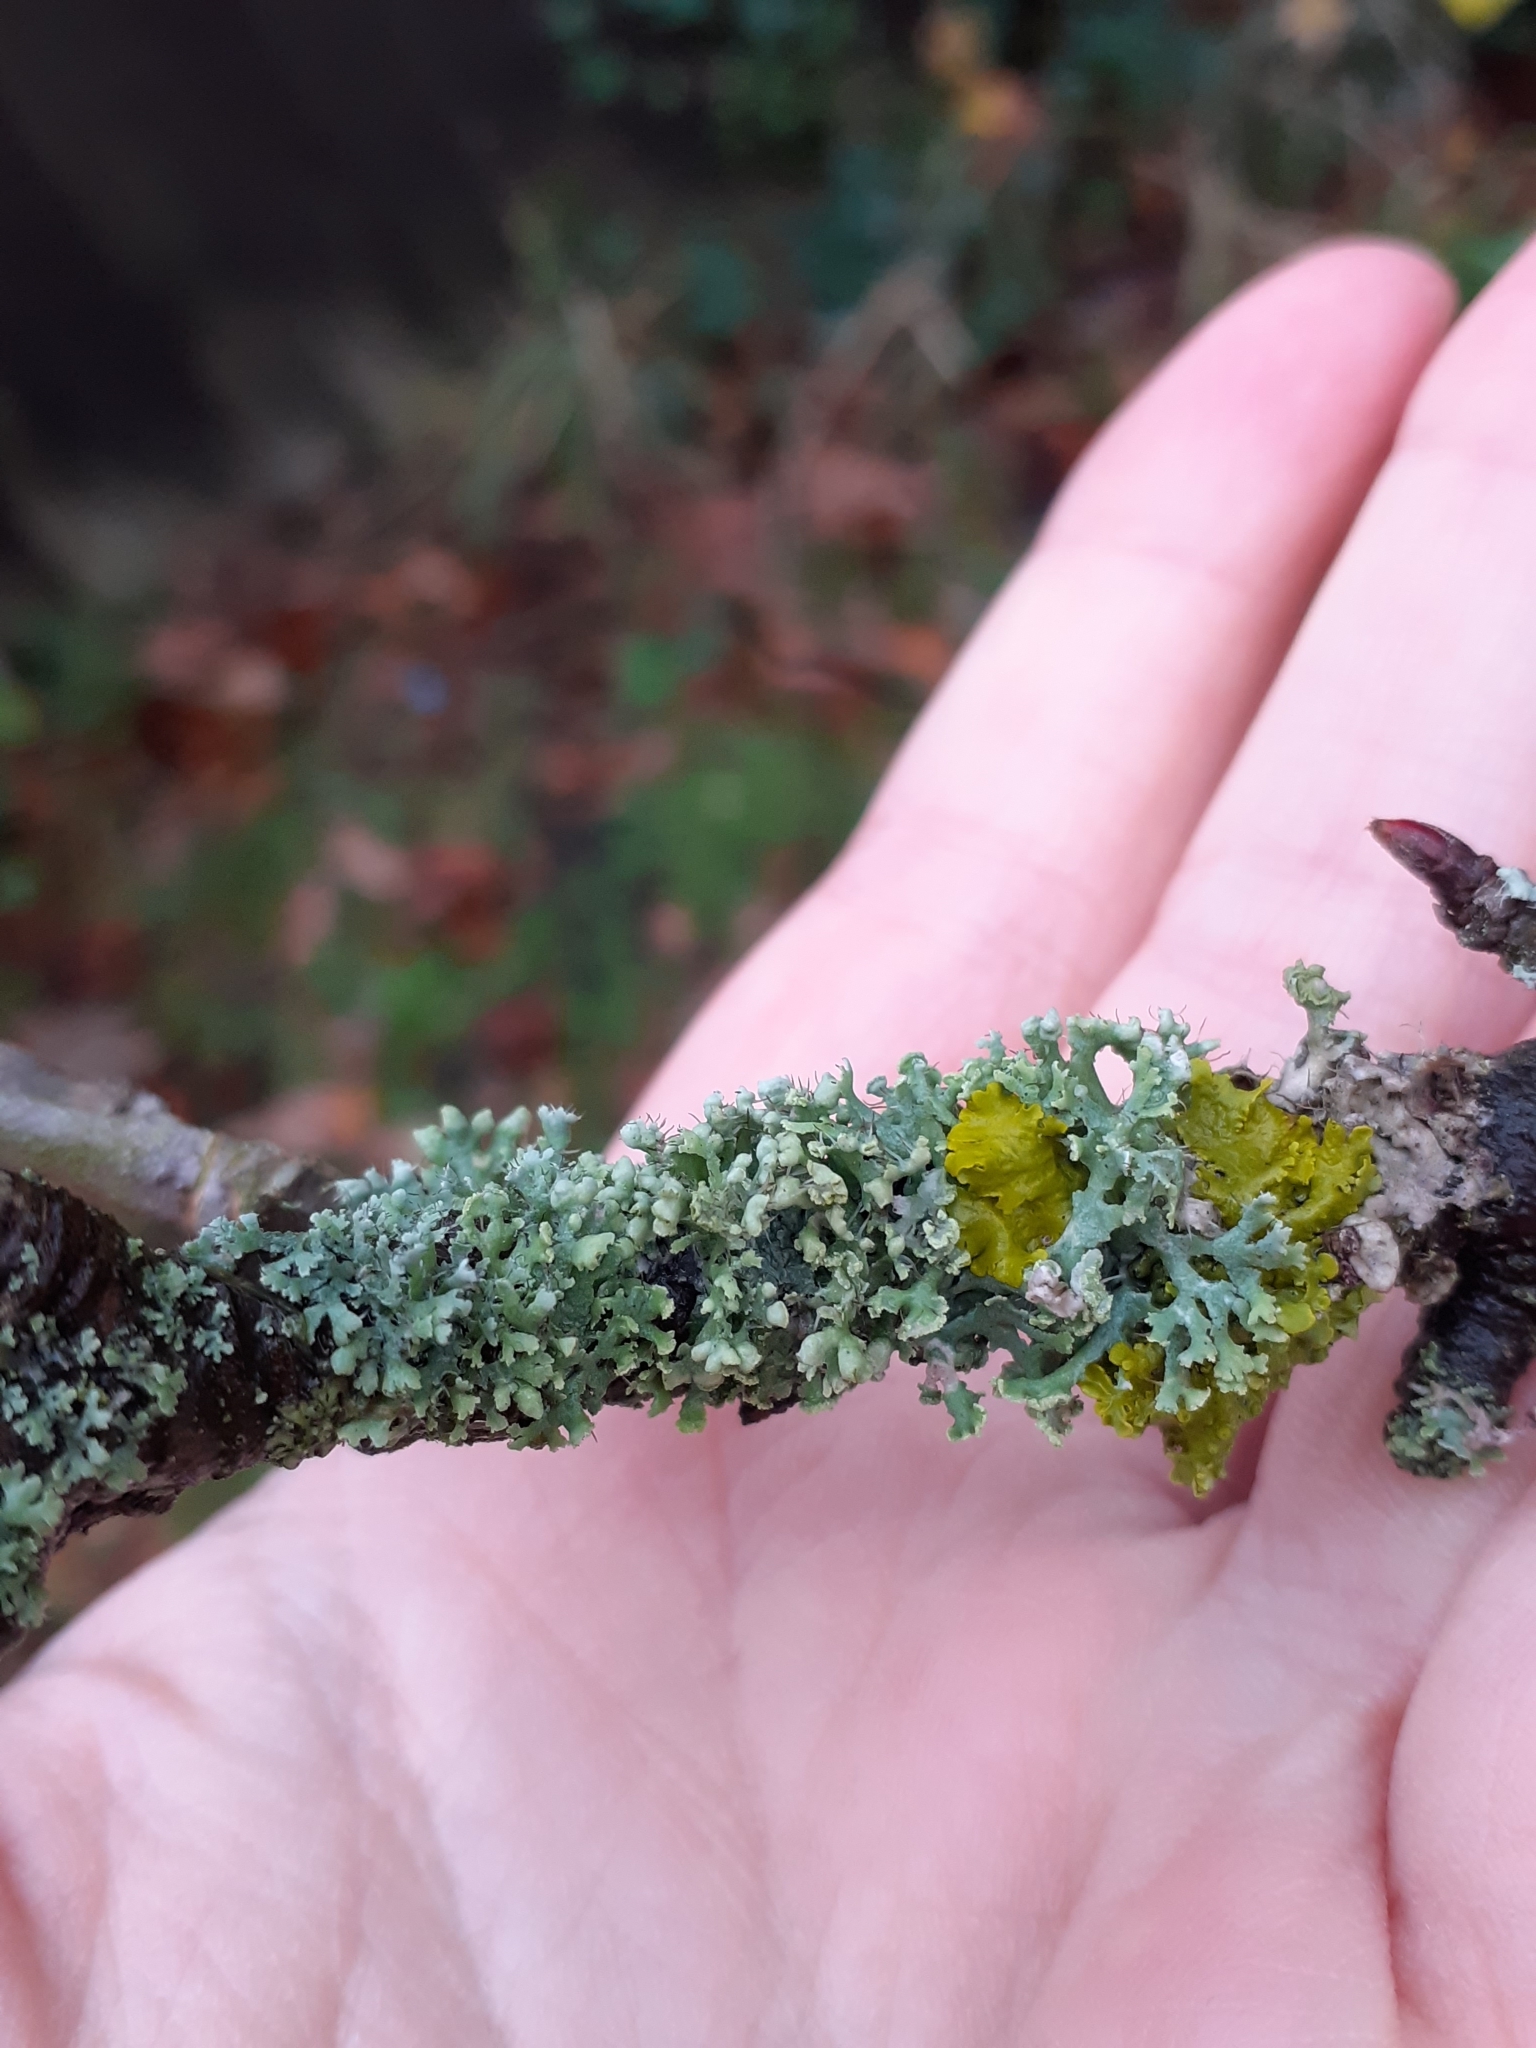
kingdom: Fungi
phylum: Ascomycota
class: Lecanoromycetes
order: Caliciales
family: Physciaceae
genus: Physcia
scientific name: Physcia adscendens
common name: Hooded rosette lichen
